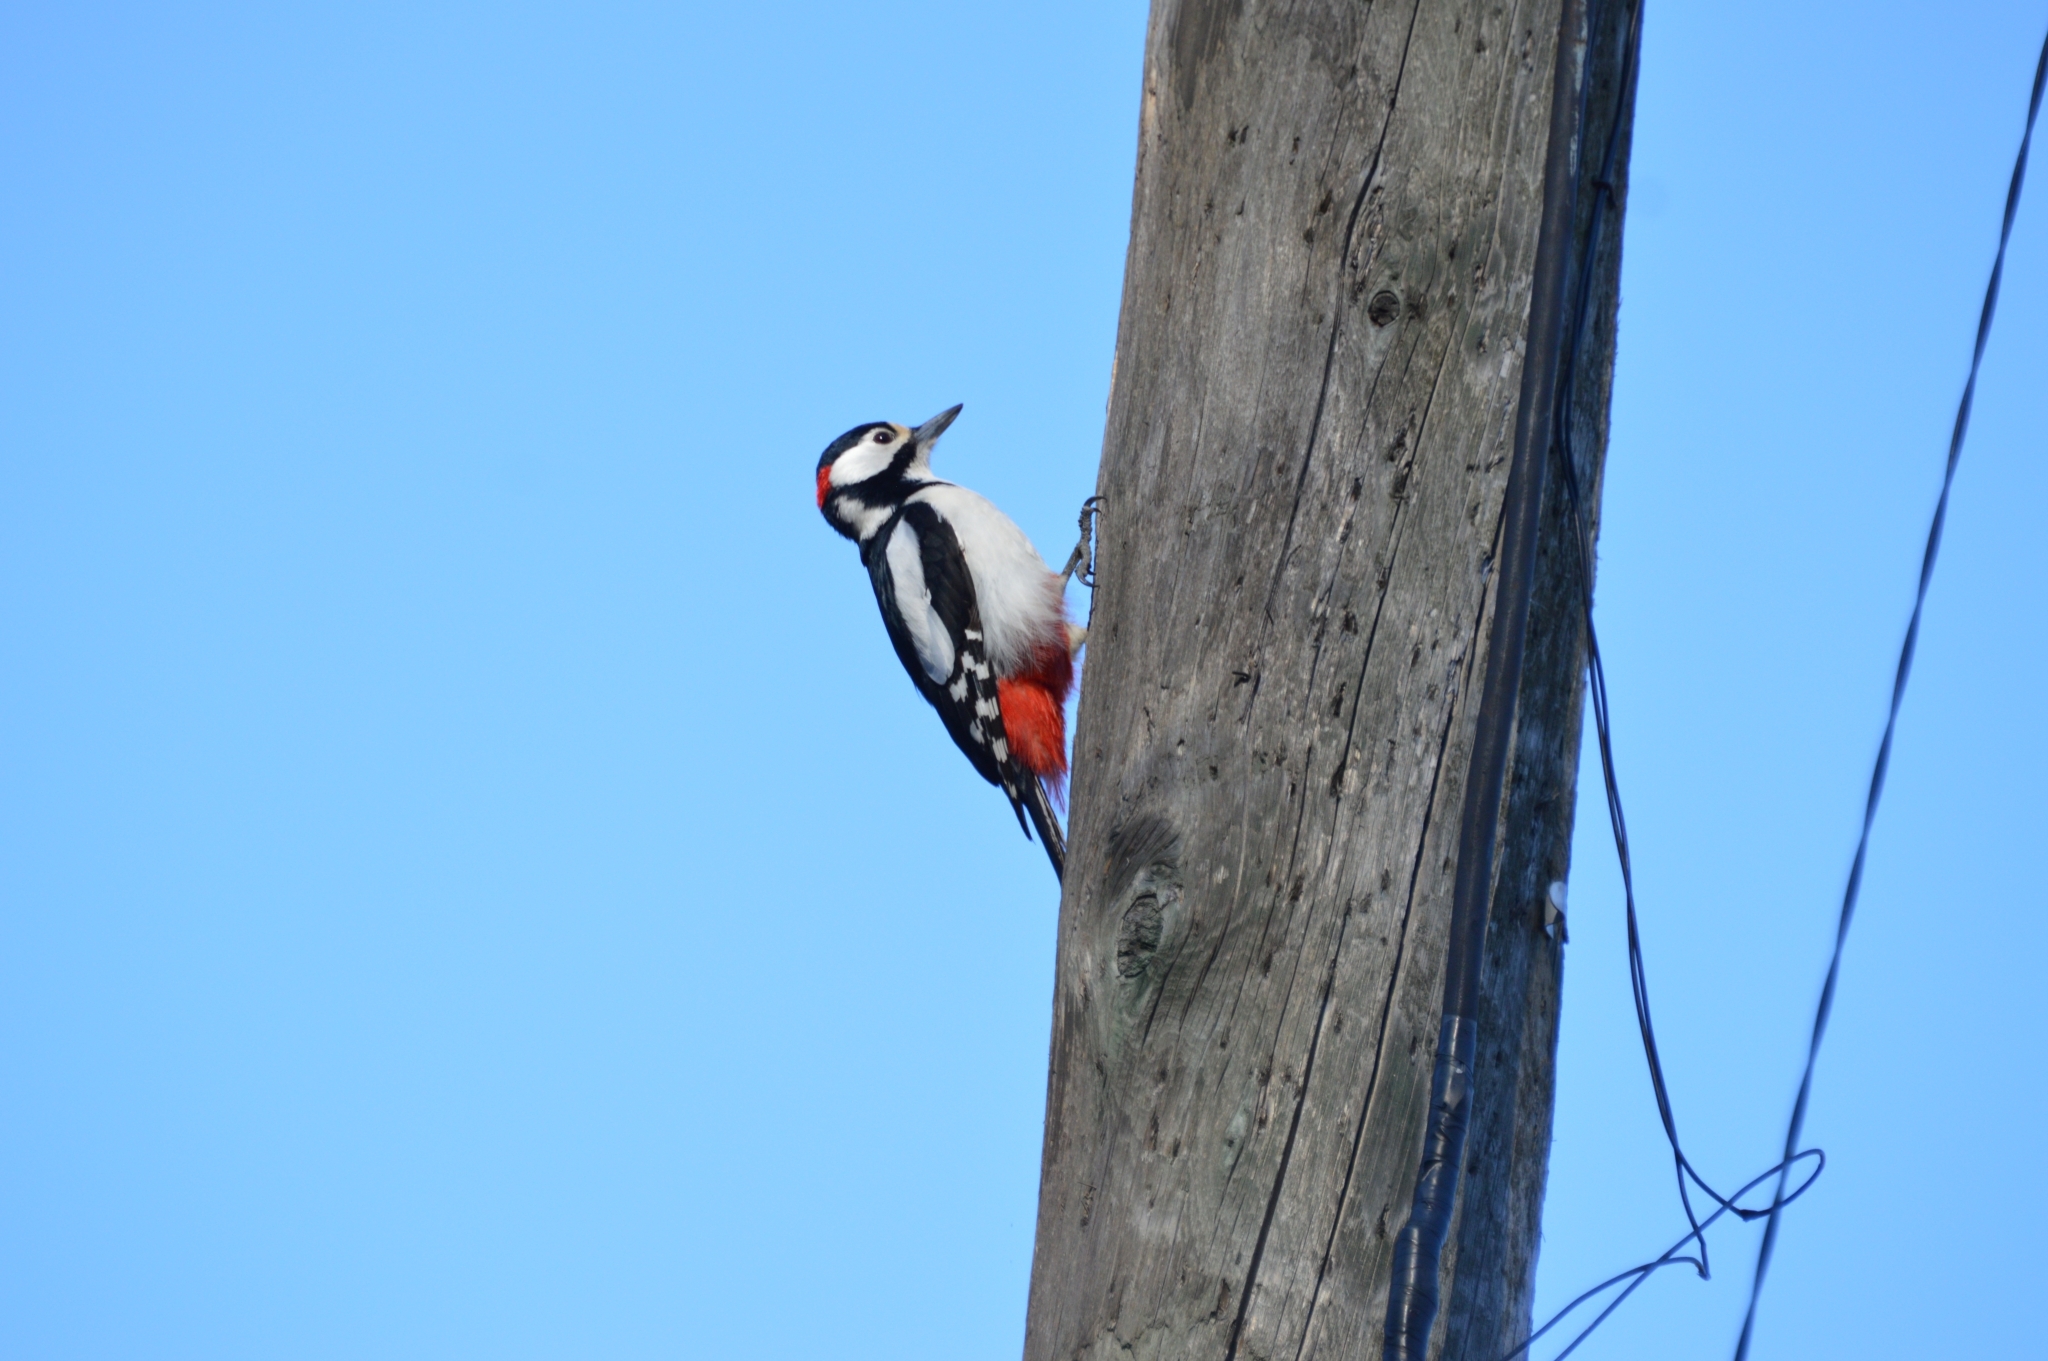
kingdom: Animalia
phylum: Chordata
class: Aves
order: Piciformes
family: Picidae
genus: Dendrocopos
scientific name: Dendrocopos major
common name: Great spotted woodpecker
